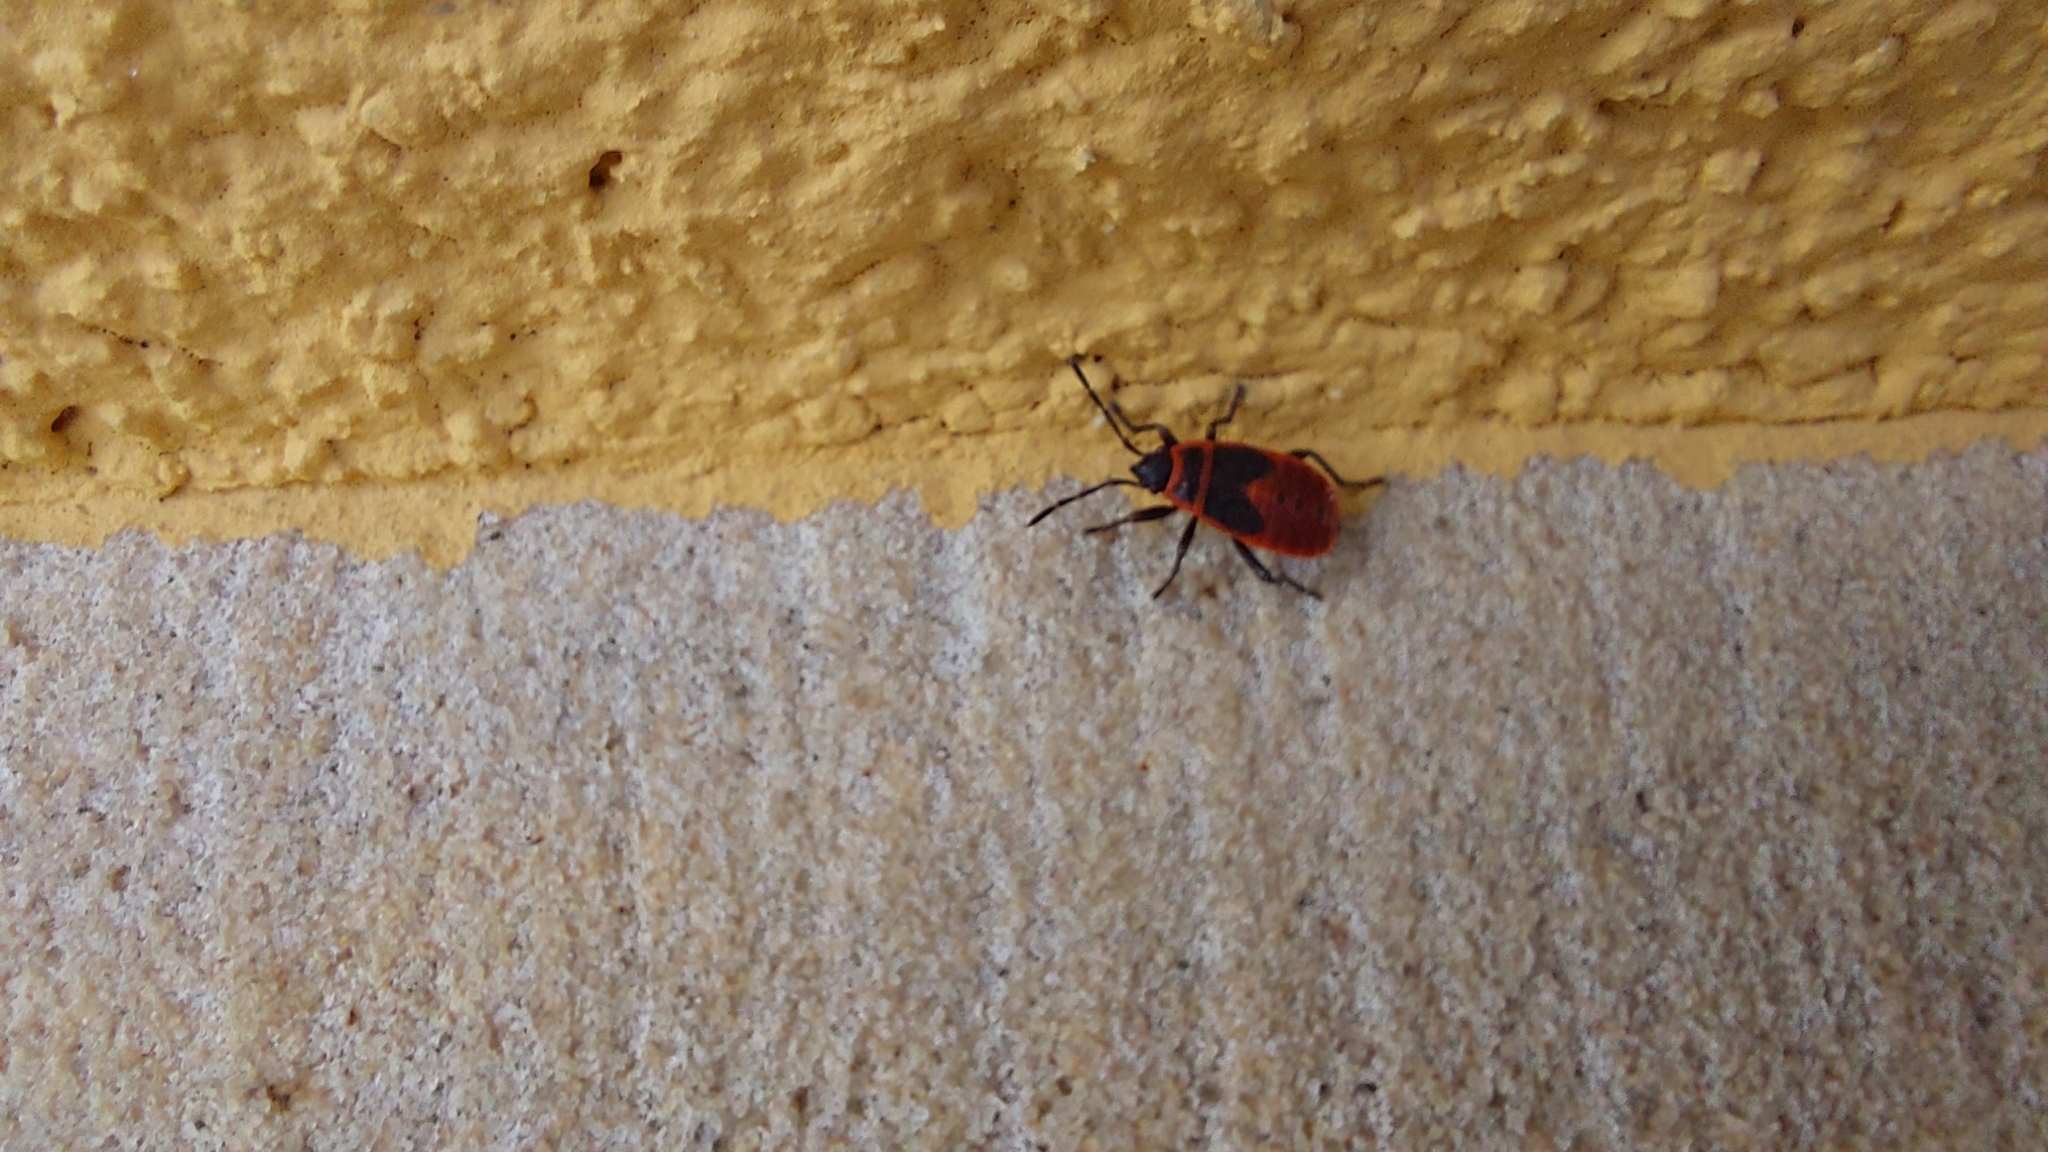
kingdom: Animalia
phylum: Arthropoda
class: Insecta
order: Hemiptera
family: Pyrrhocoridae
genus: Pyrrhocoris
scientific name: Pyrrhocoris apterus
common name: Firebug
